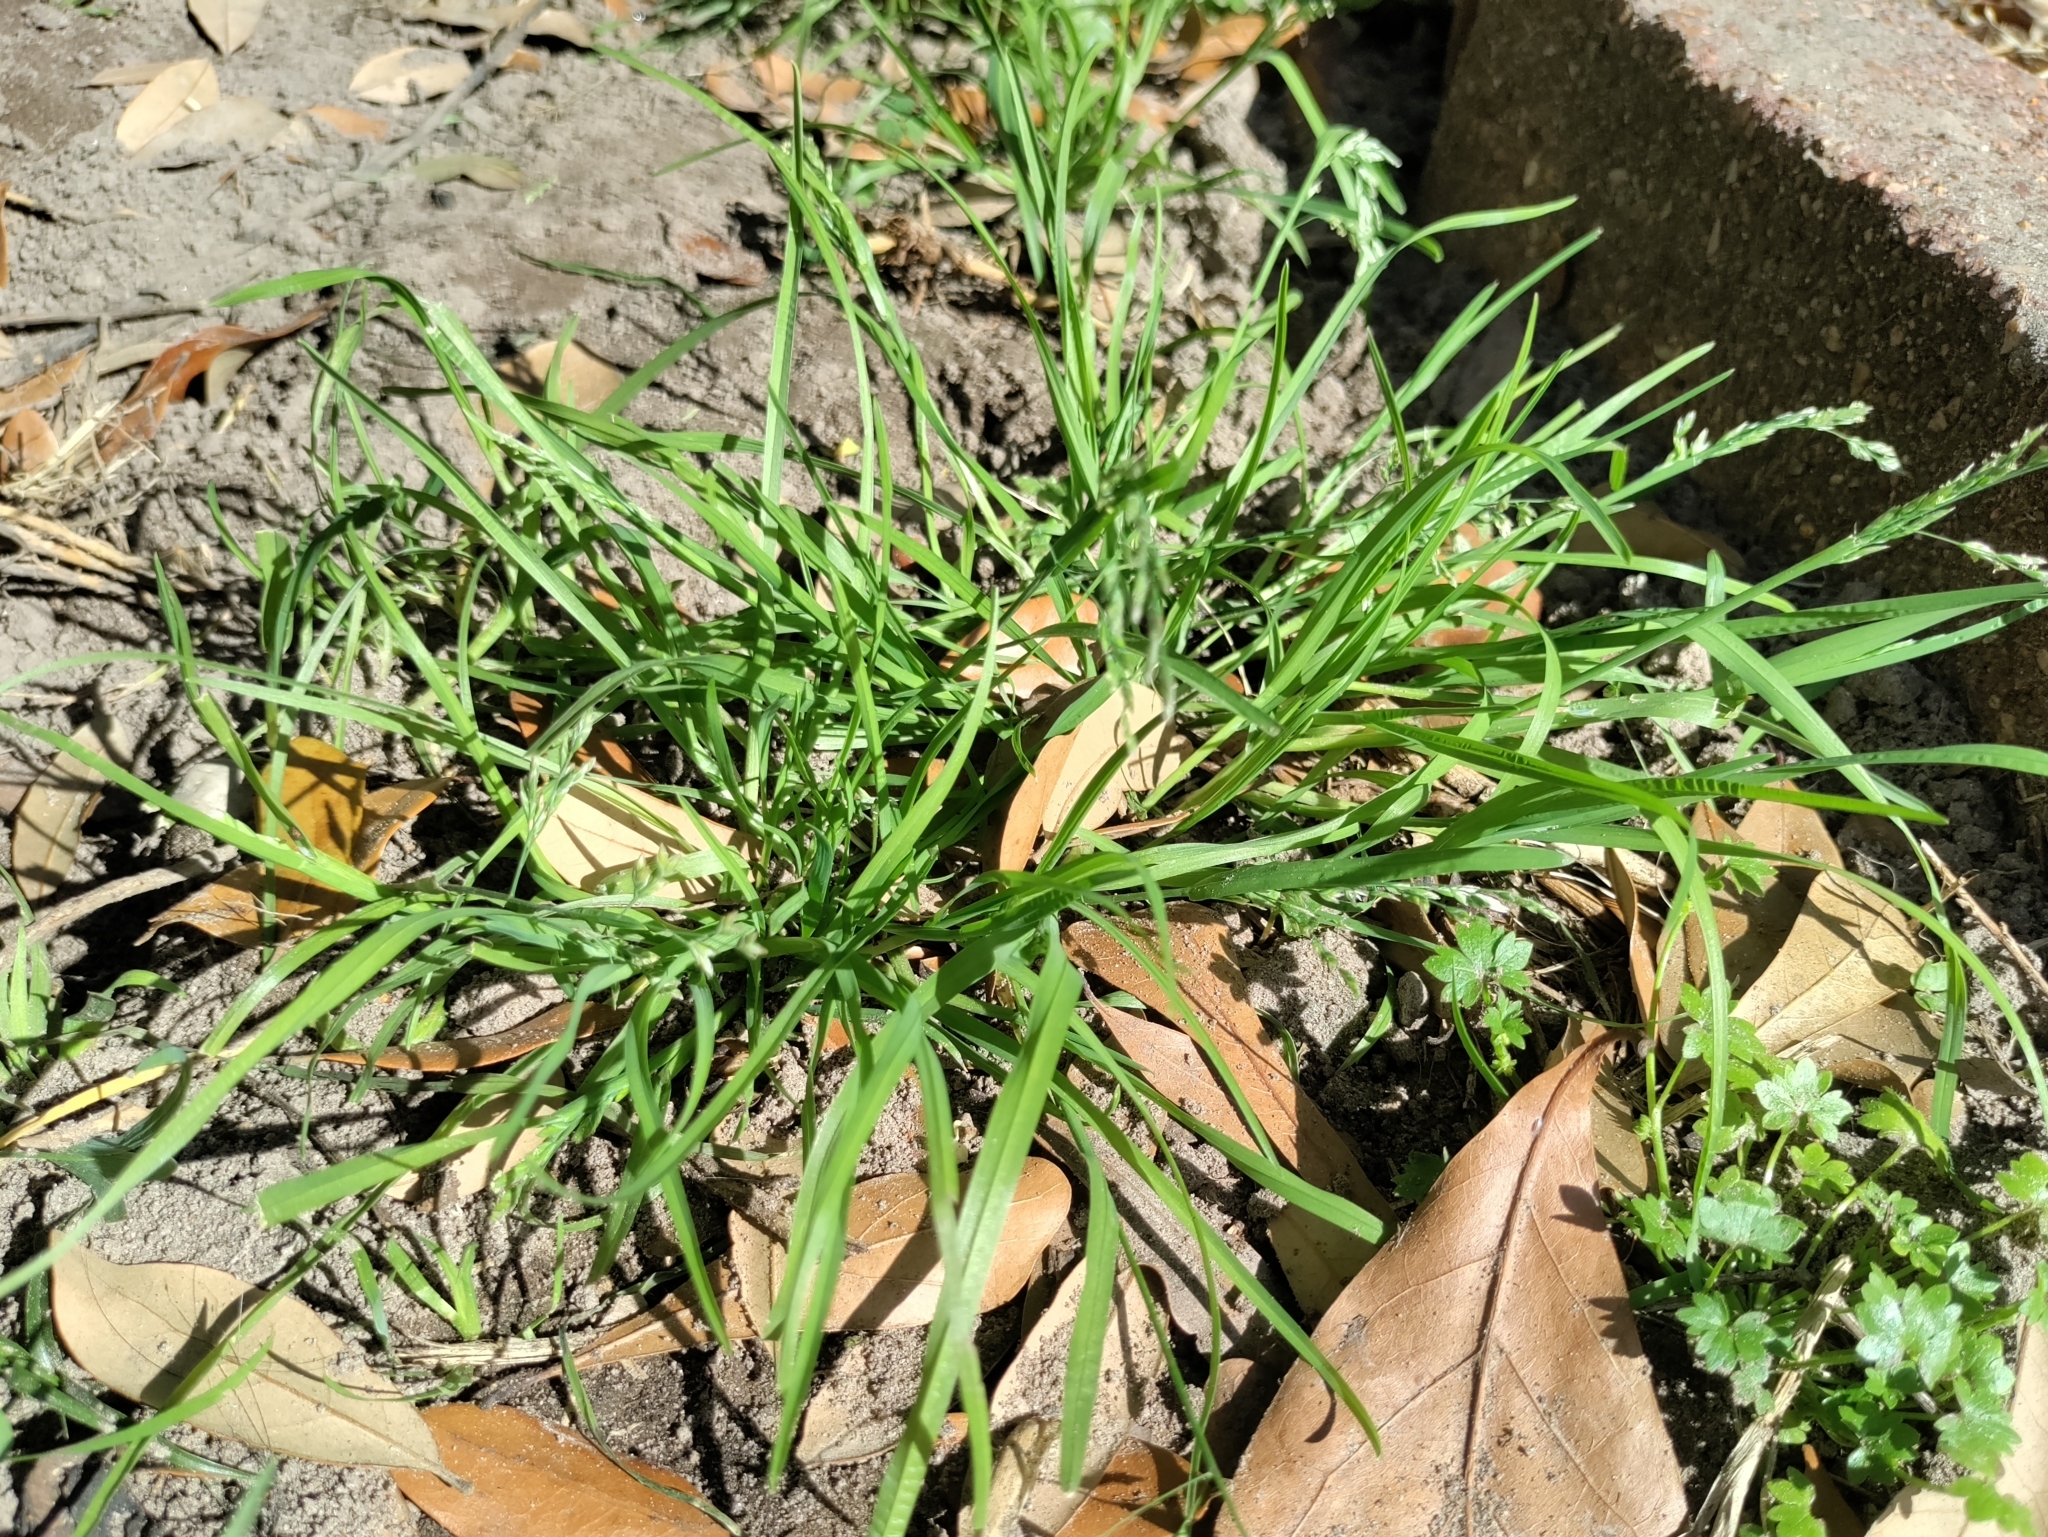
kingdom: Plantae
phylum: Tracheophyta
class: Liliopsida
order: Poales
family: Poaceae
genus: Poa
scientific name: Poa annua
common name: Annual bluegrass
